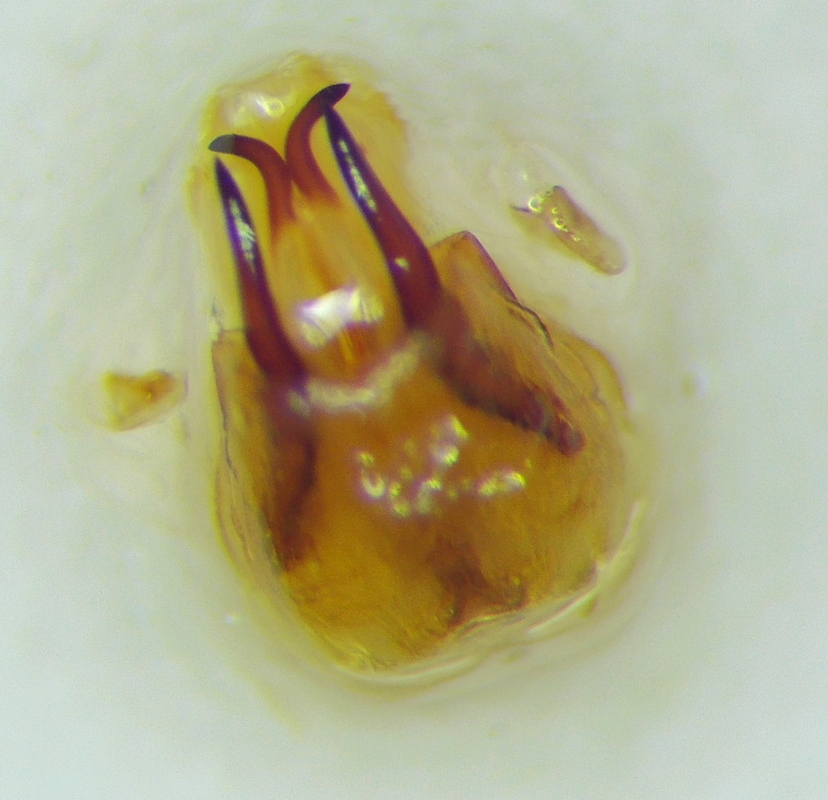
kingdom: Animalia
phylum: Arthropoda
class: Insecta
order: Hemiptera
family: Scutelleridae
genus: Eurygaster
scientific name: Eurygaster integriceps
